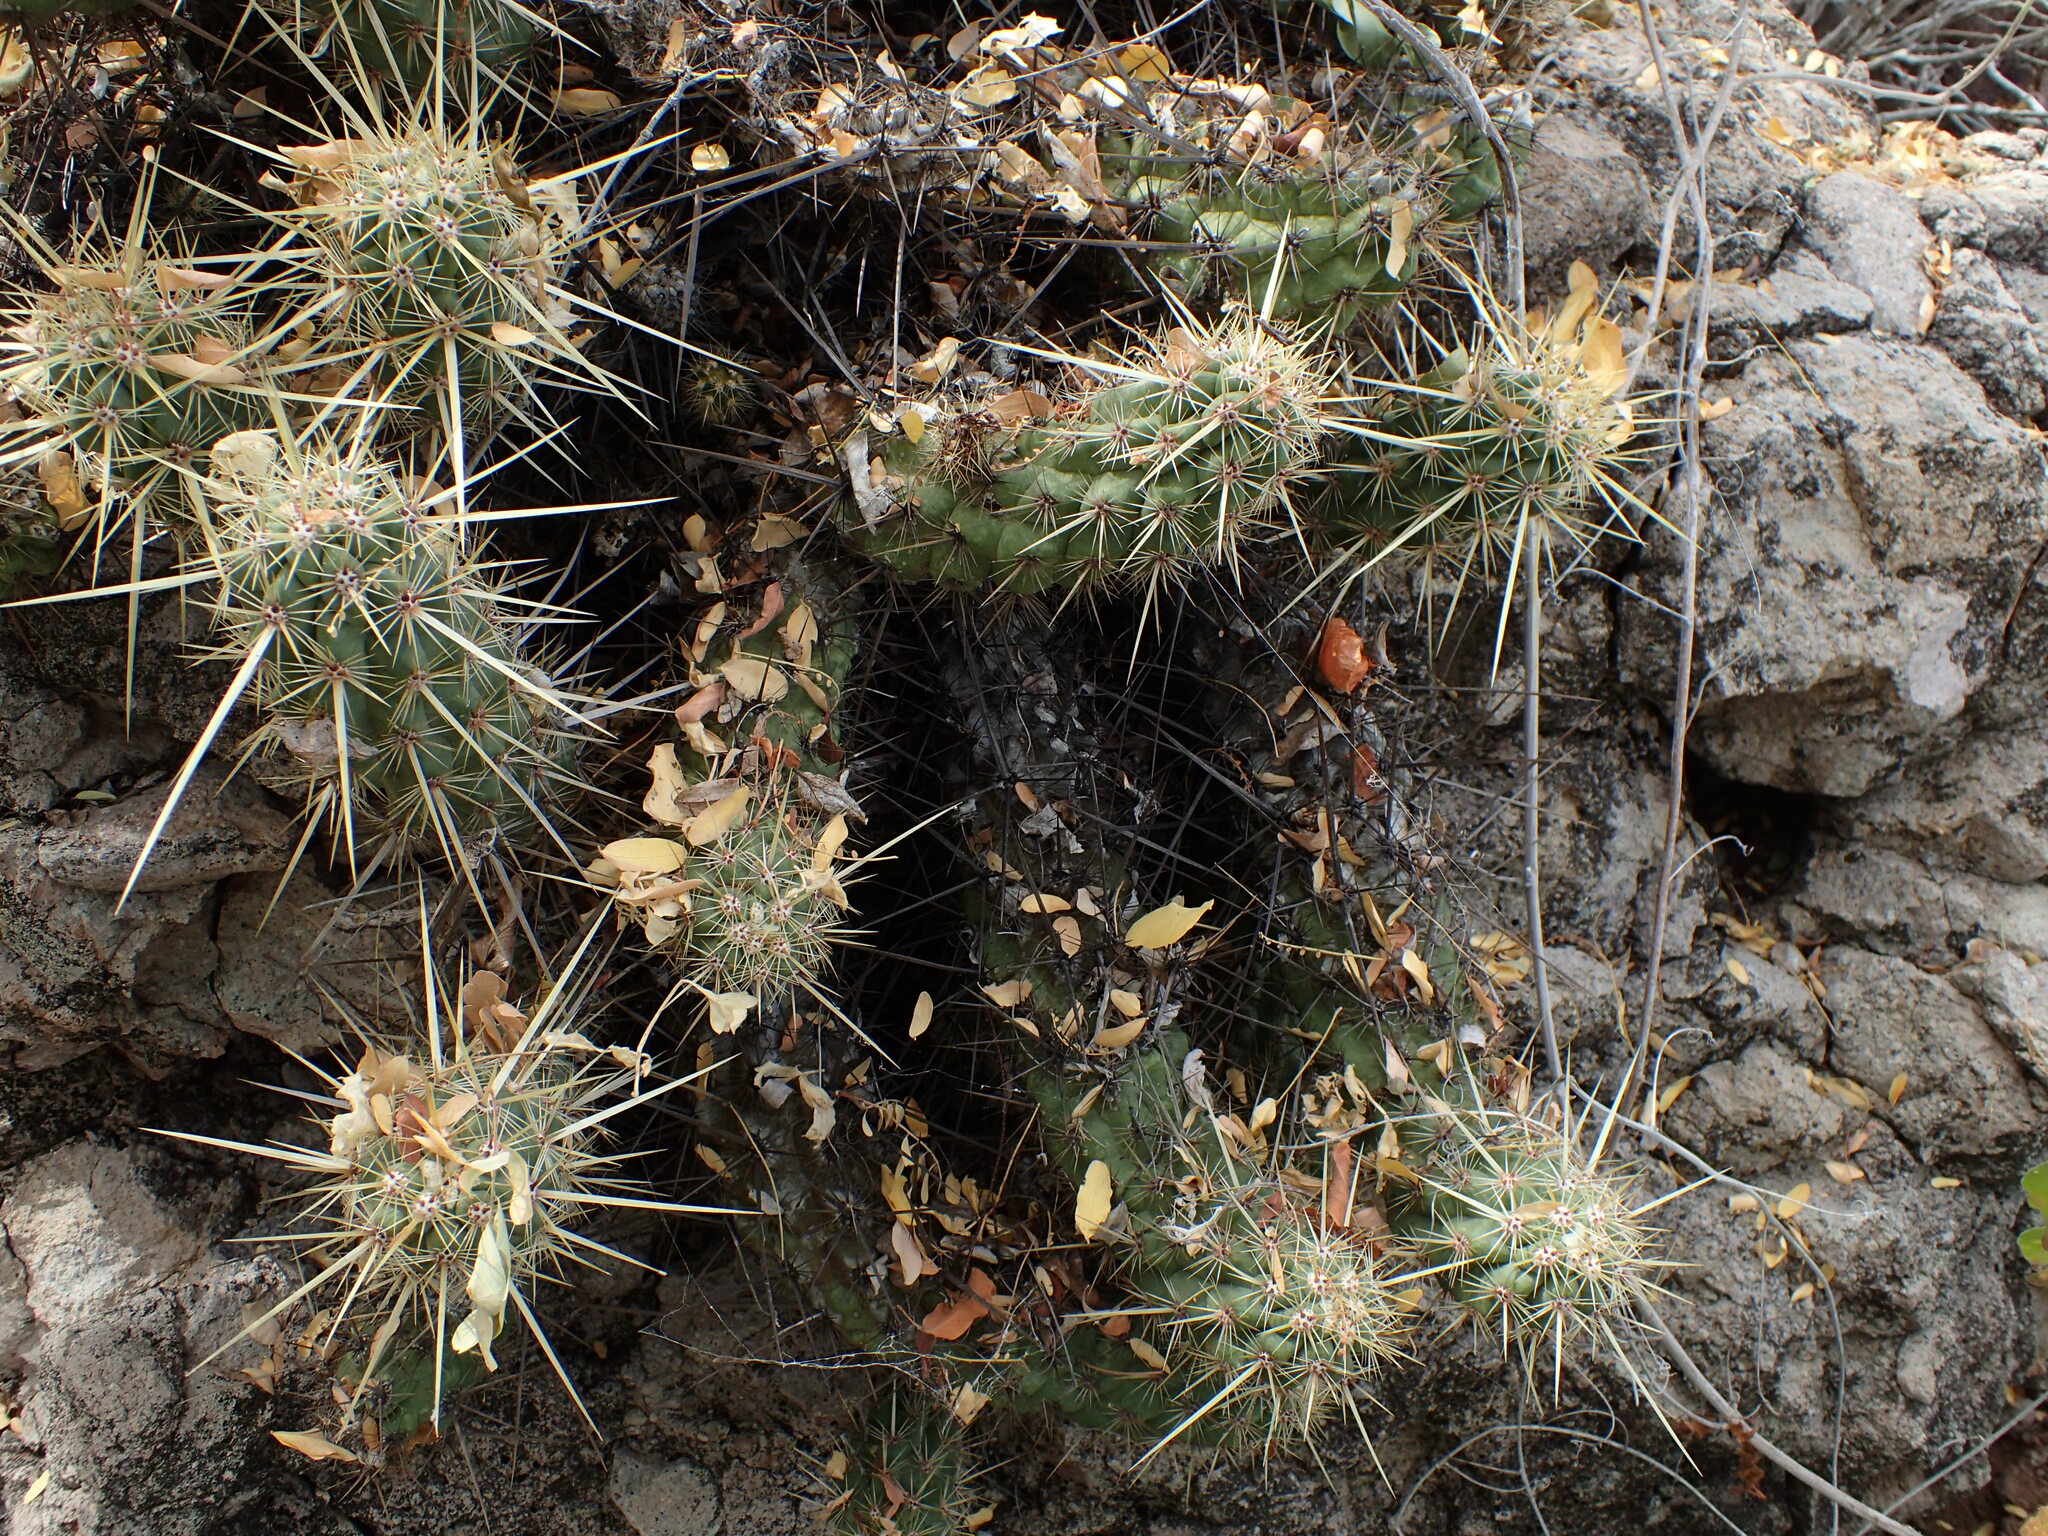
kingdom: Plantae
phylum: Tracheophyta
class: Magnoliopsida
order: Caryophyllales
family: Cactaceae
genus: Echinocereus
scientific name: Echinocereus brandegeei
